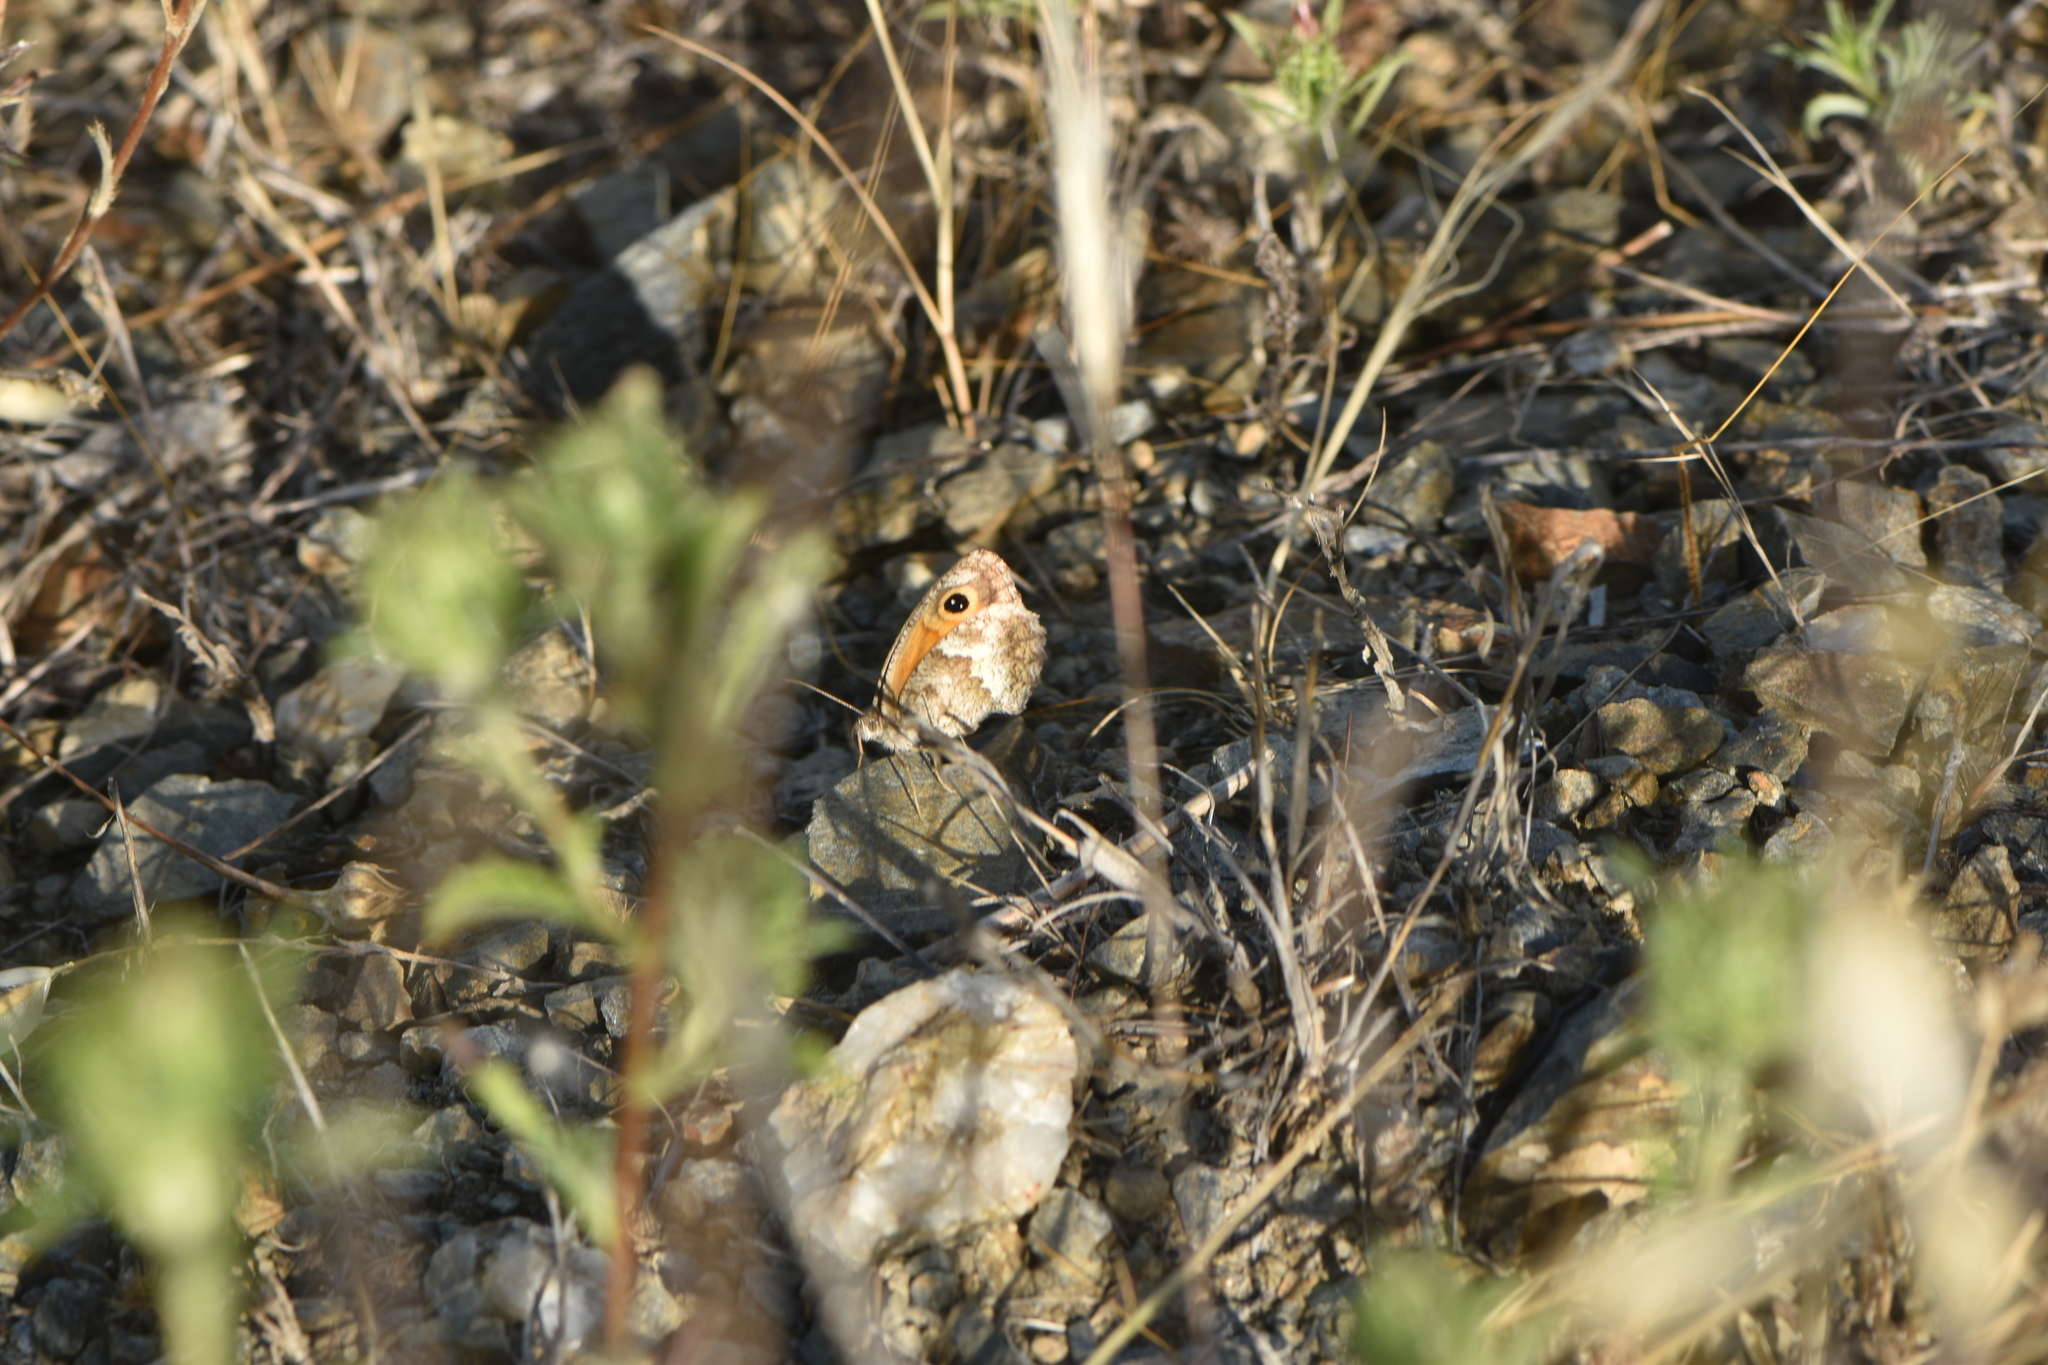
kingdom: Animalia
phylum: Arthropoda
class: Insecta
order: Lepidoptera
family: Nymphalidae
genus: Pyronia
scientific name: Pyronia cecilia
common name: Southern gatekeeper
